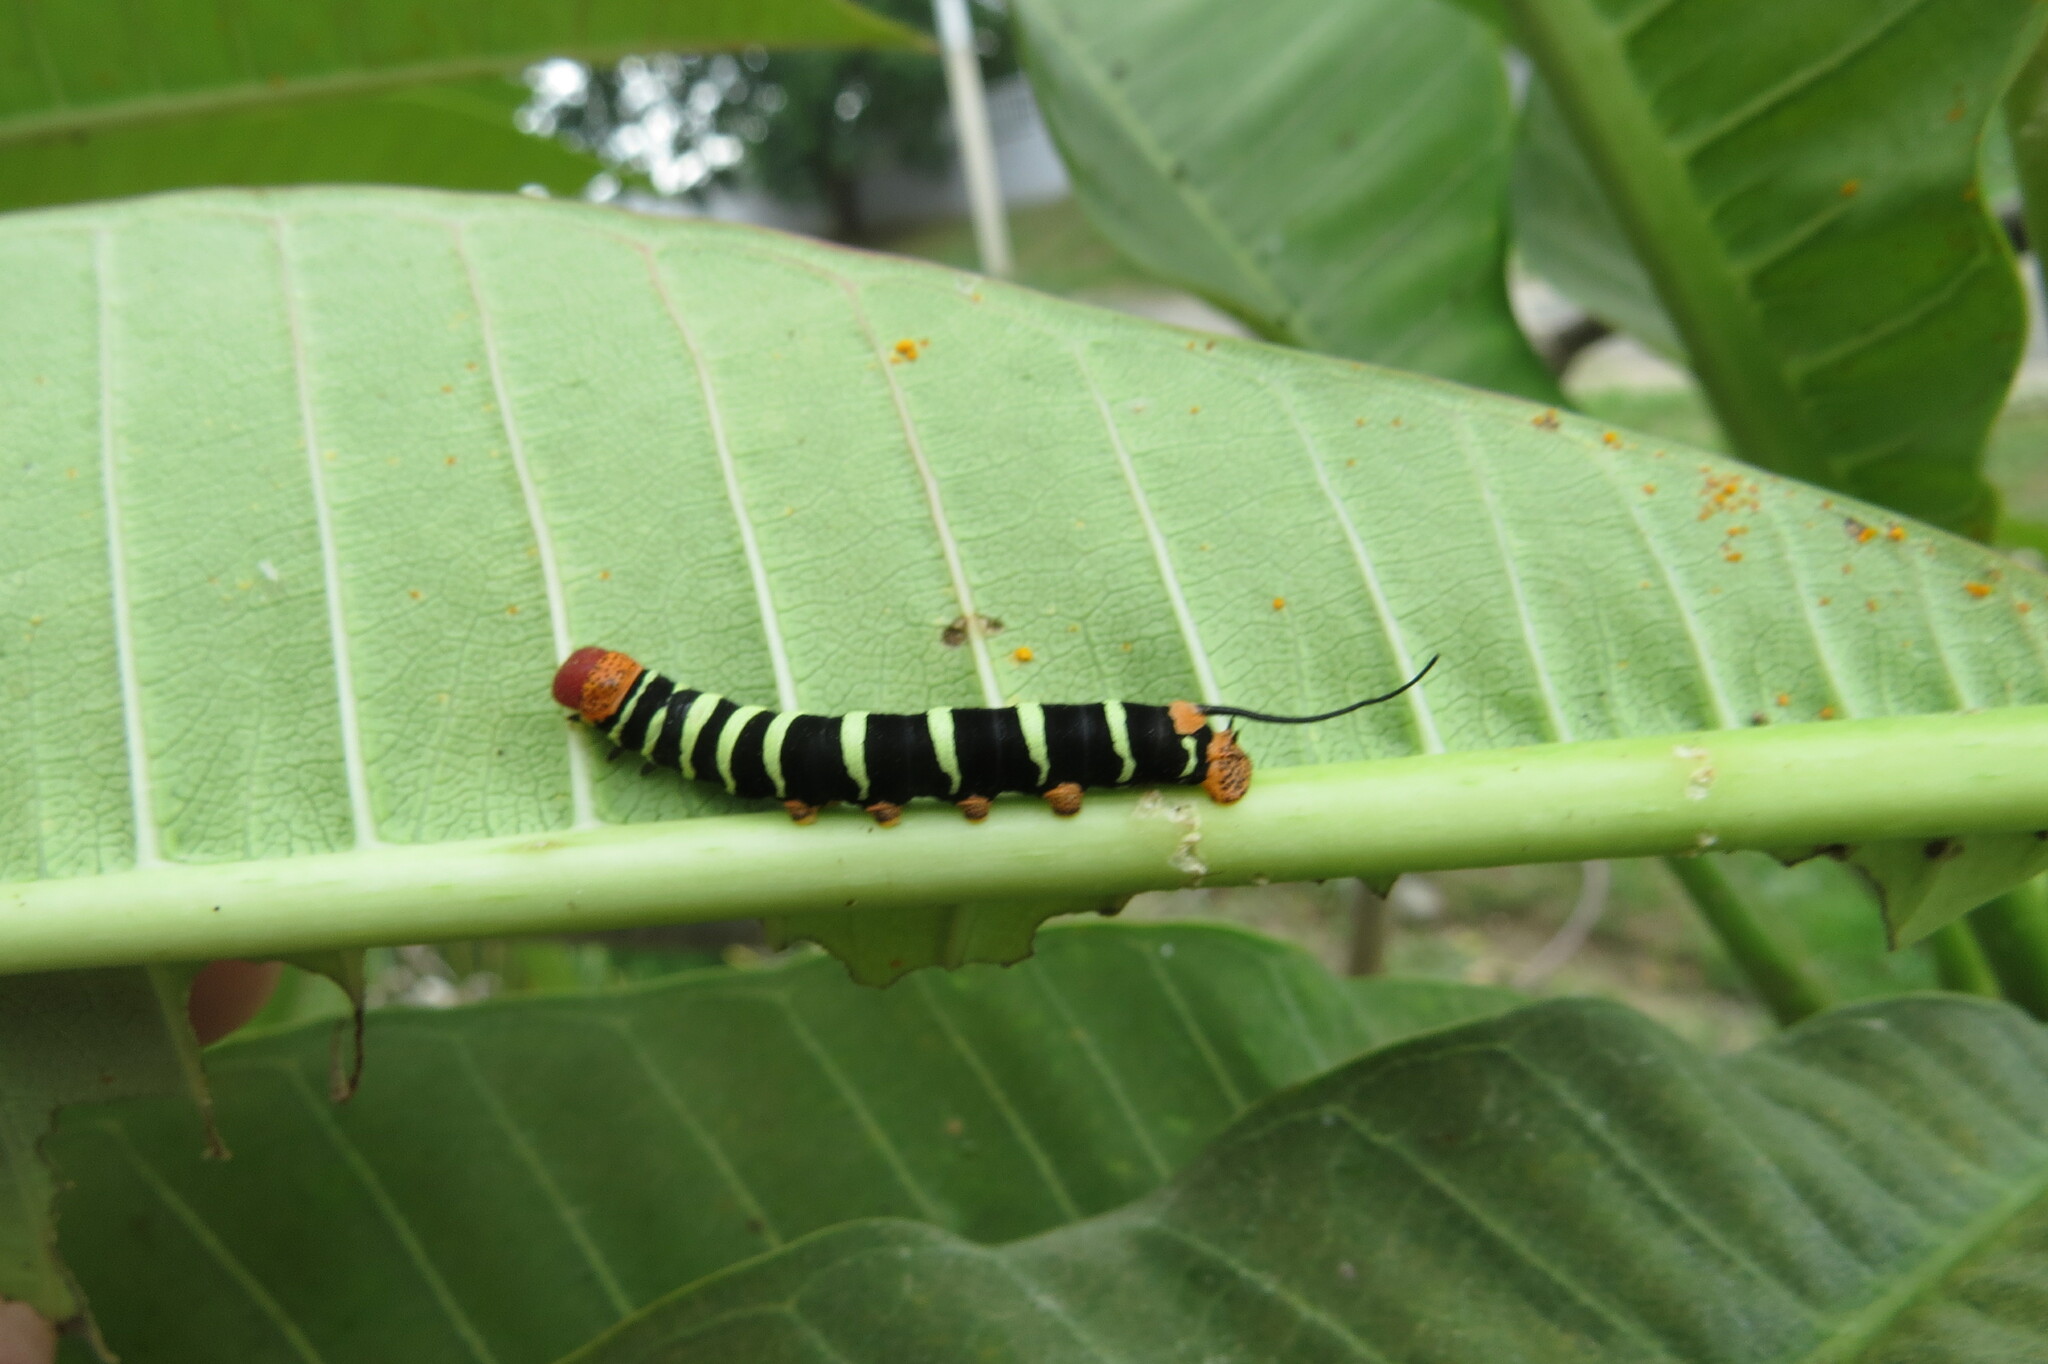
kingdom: Animalia
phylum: Arthropoda
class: Insecta
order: Lepidoptera
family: Sphingidae
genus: Pseudosphinx
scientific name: Pseudosphinx tetrio
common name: Tetrio sphinx
